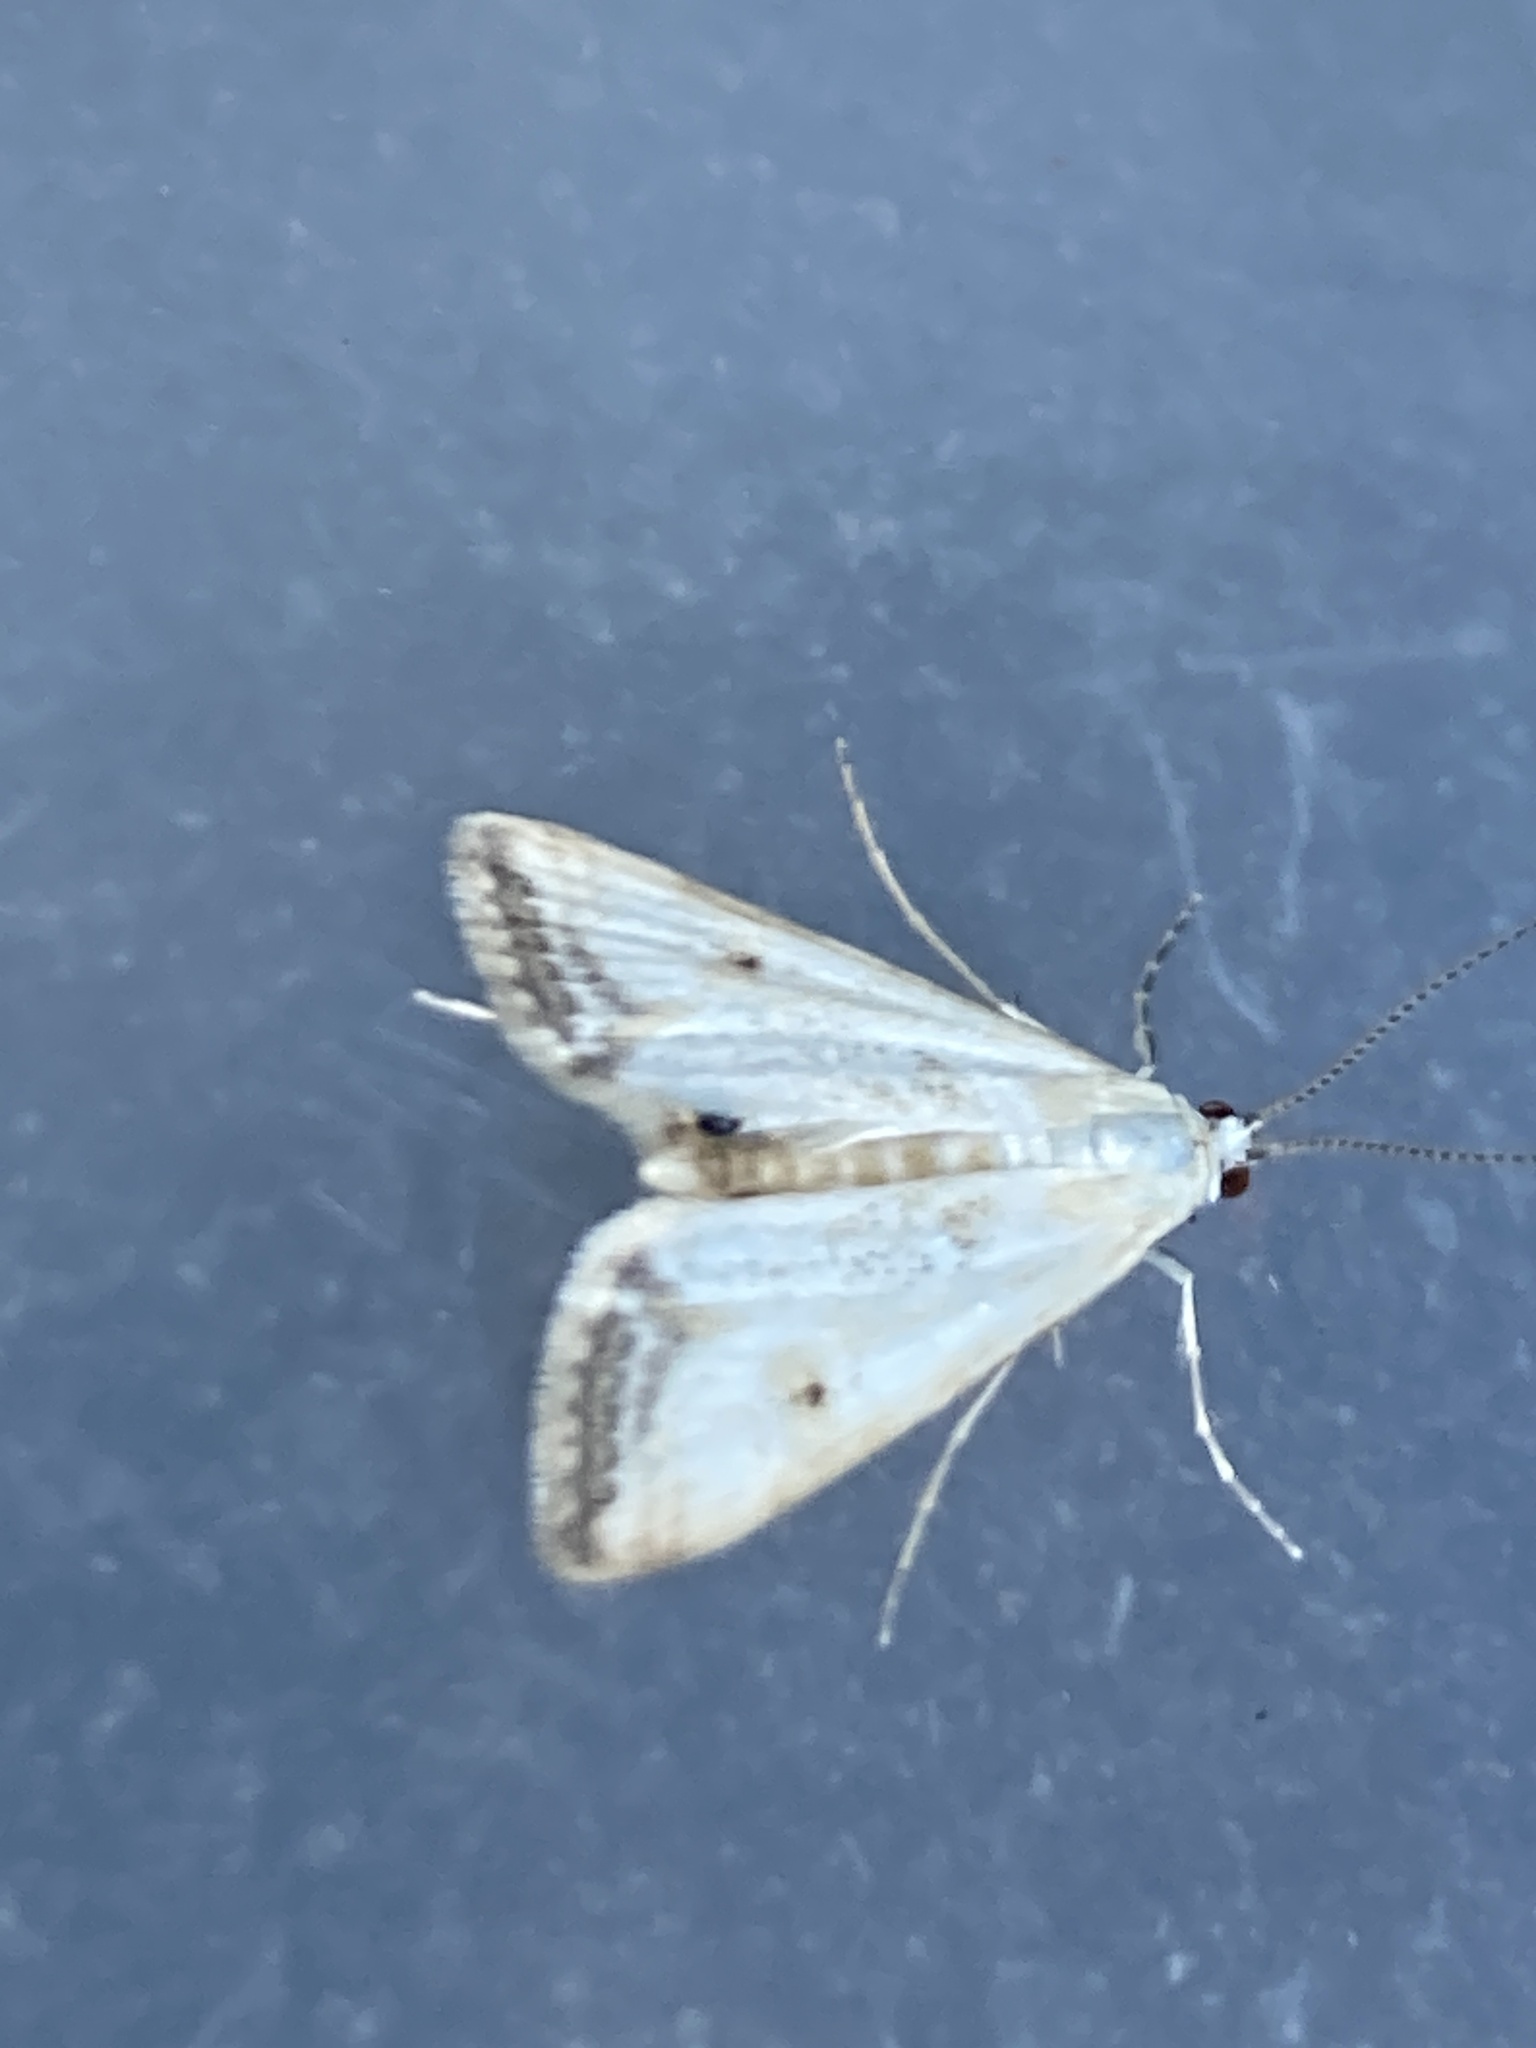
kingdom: Animalia
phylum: Arthropoda
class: Insecta
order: Lepidoptera
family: Crambidae
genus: Cataclysta
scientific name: Cataclysta lemnata
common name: Small china-mark
